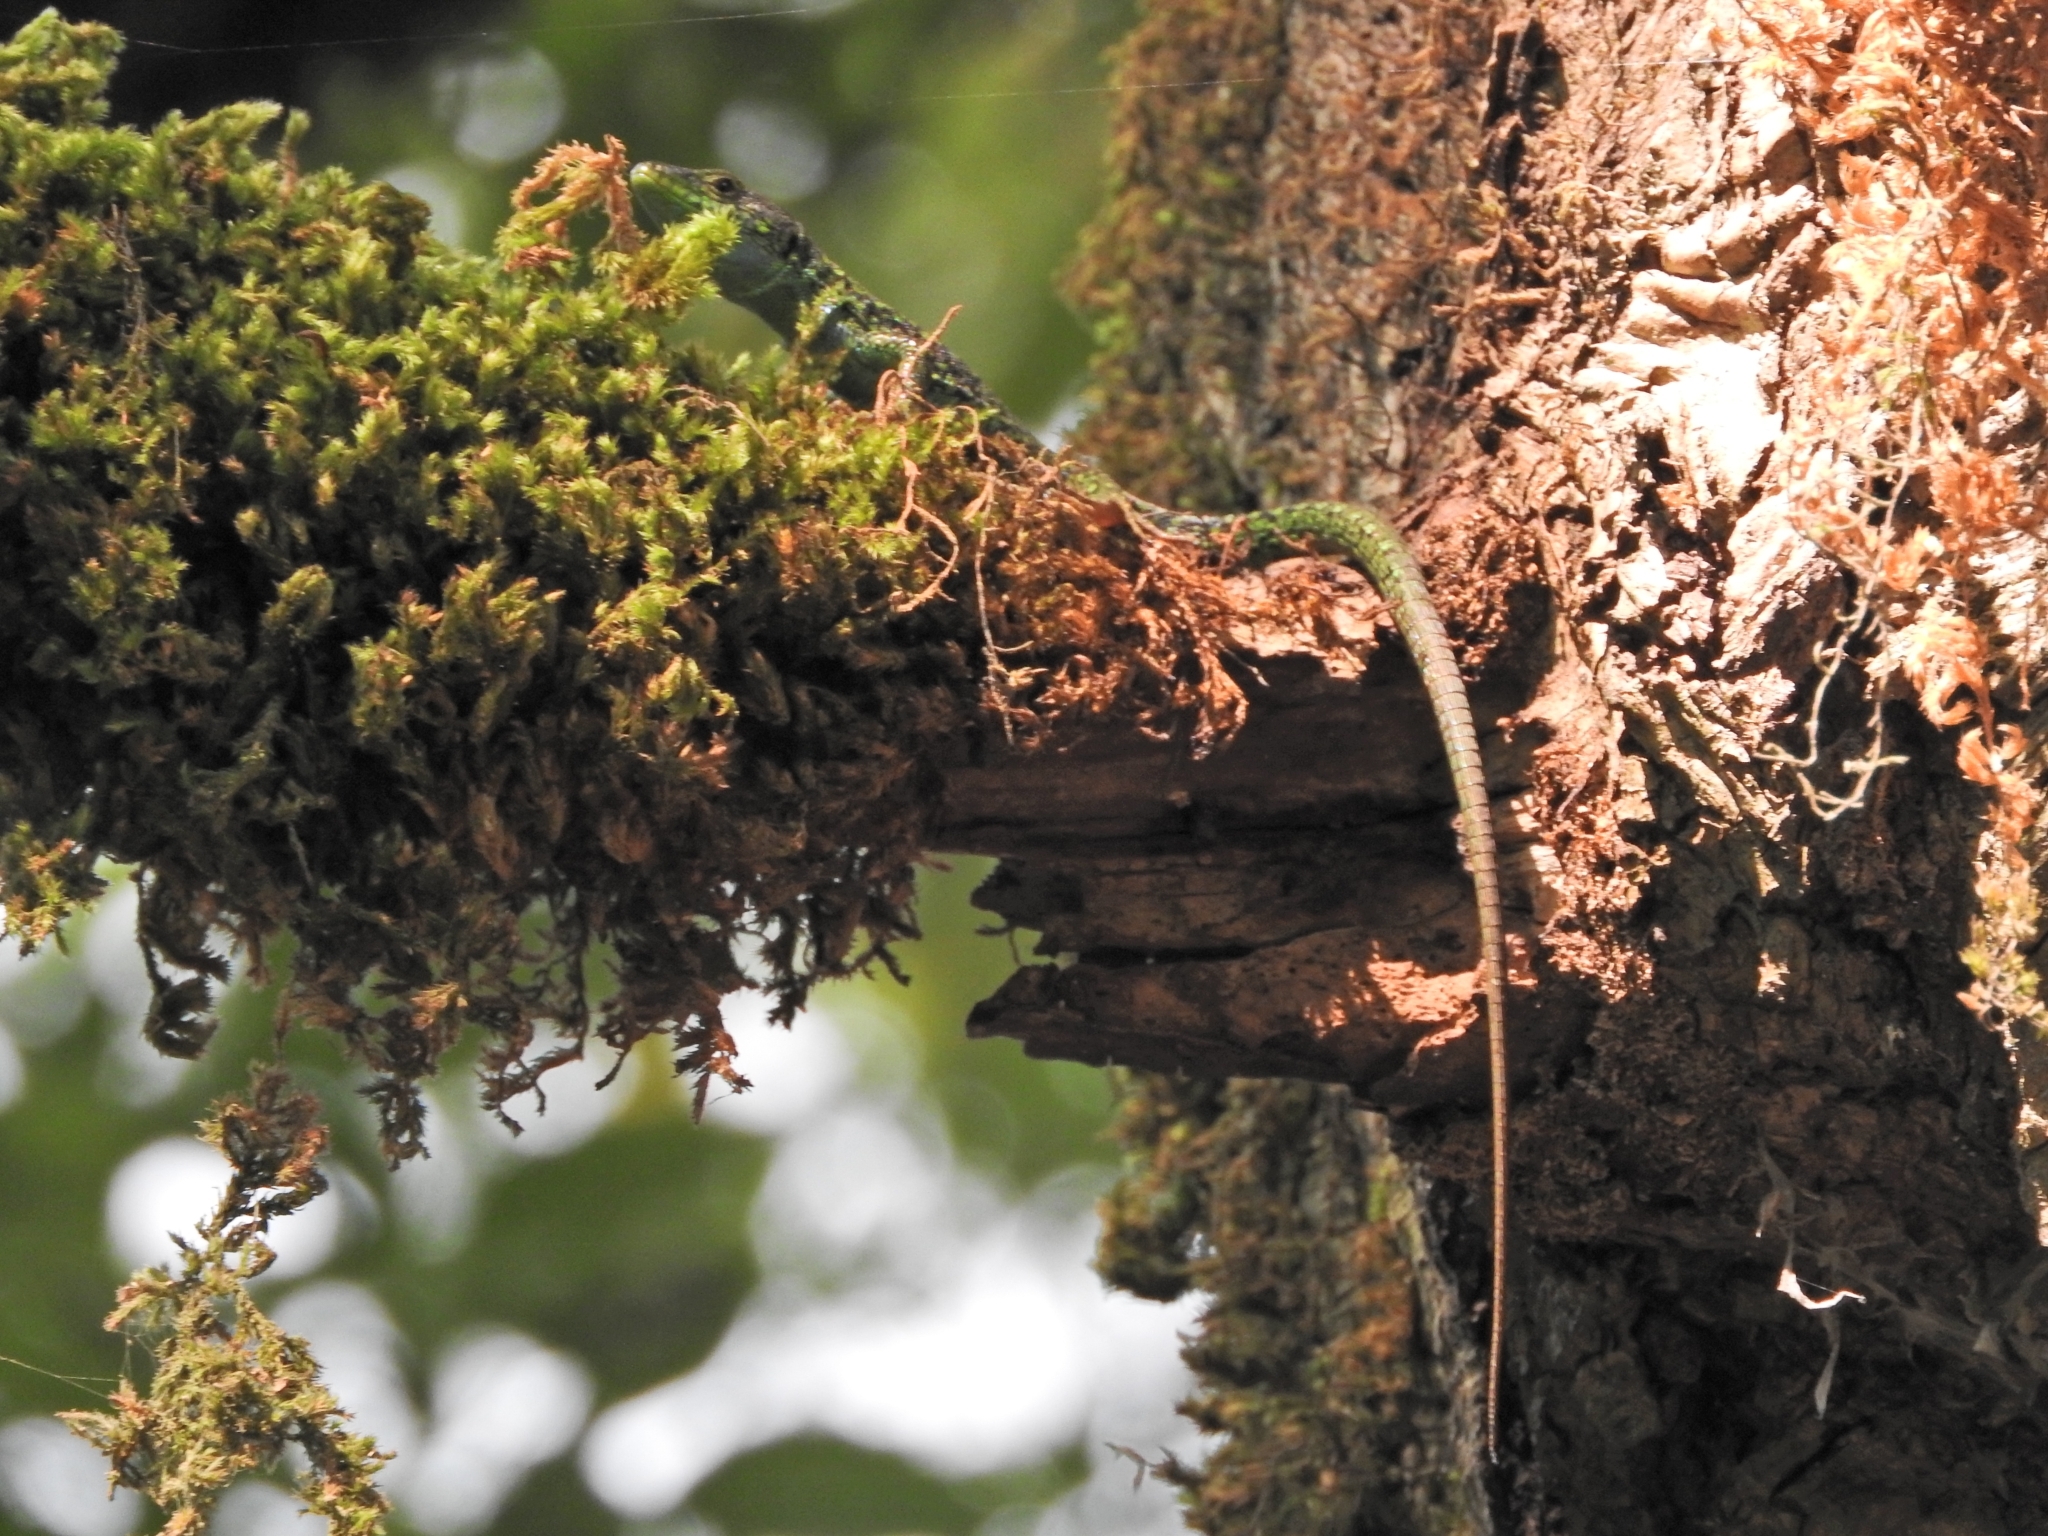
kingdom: Animalia
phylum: Chordata
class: Squamata
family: Lacertidae
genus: Darevskia
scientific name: Darevskia chlorogaster
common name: Green-bellied lizard
